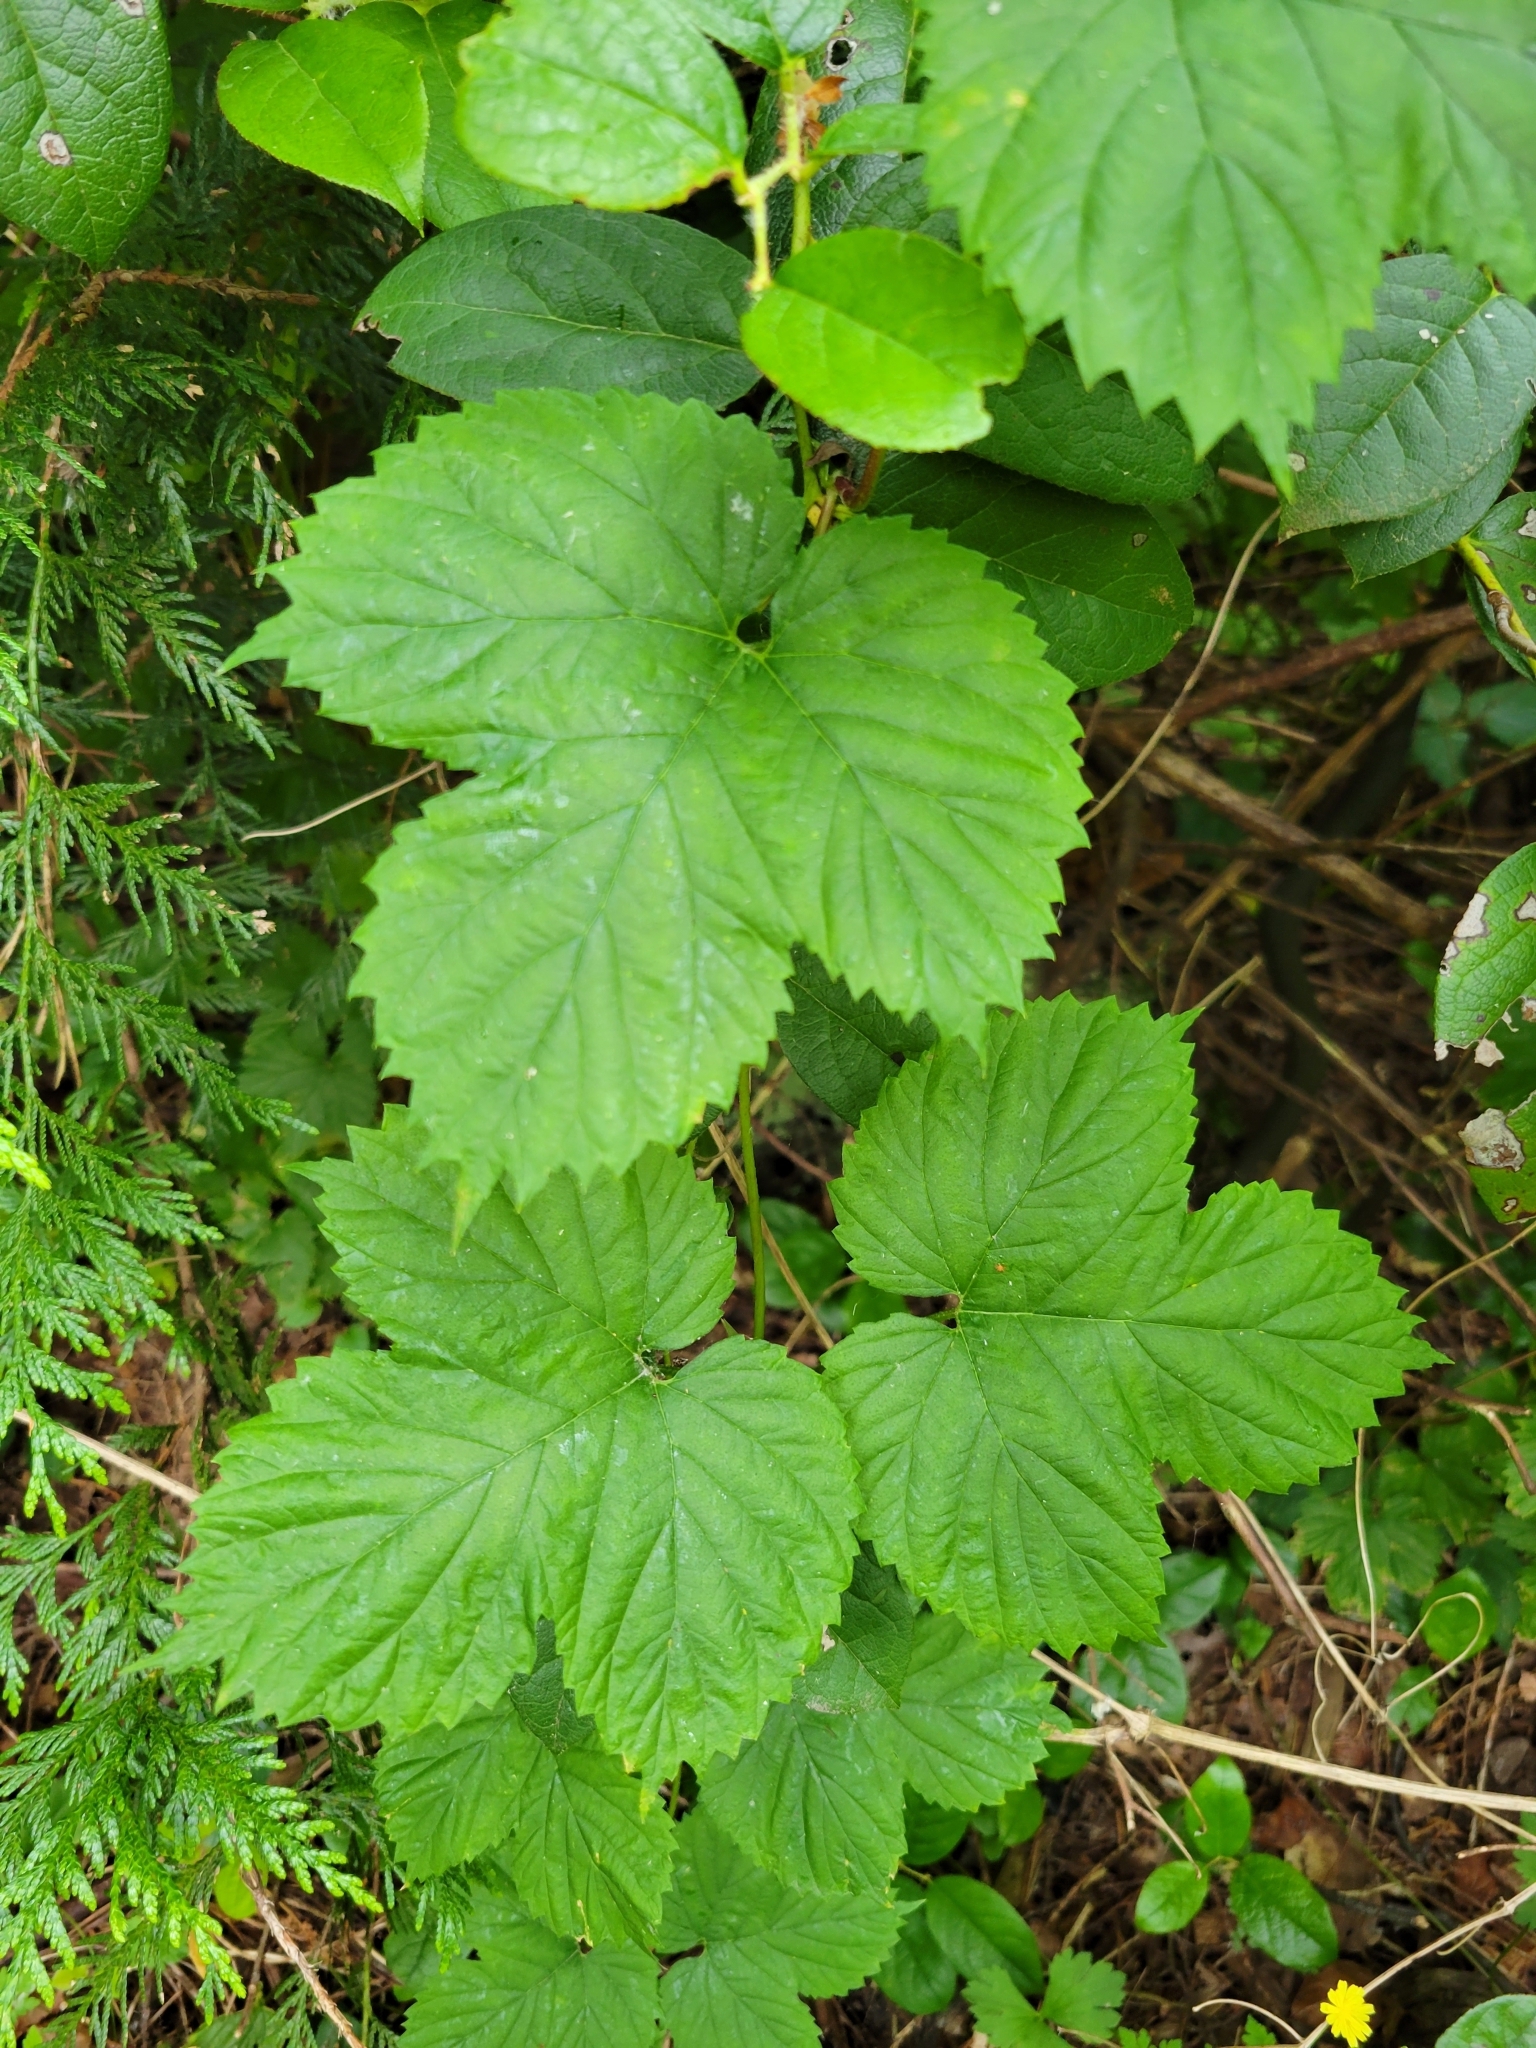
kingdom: Plantae
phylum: Tracheophyta
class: Magnoliopsida
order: Rosales
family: Cannabaceae
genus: Humulus
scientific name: Humulus lupulus
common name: Hop
